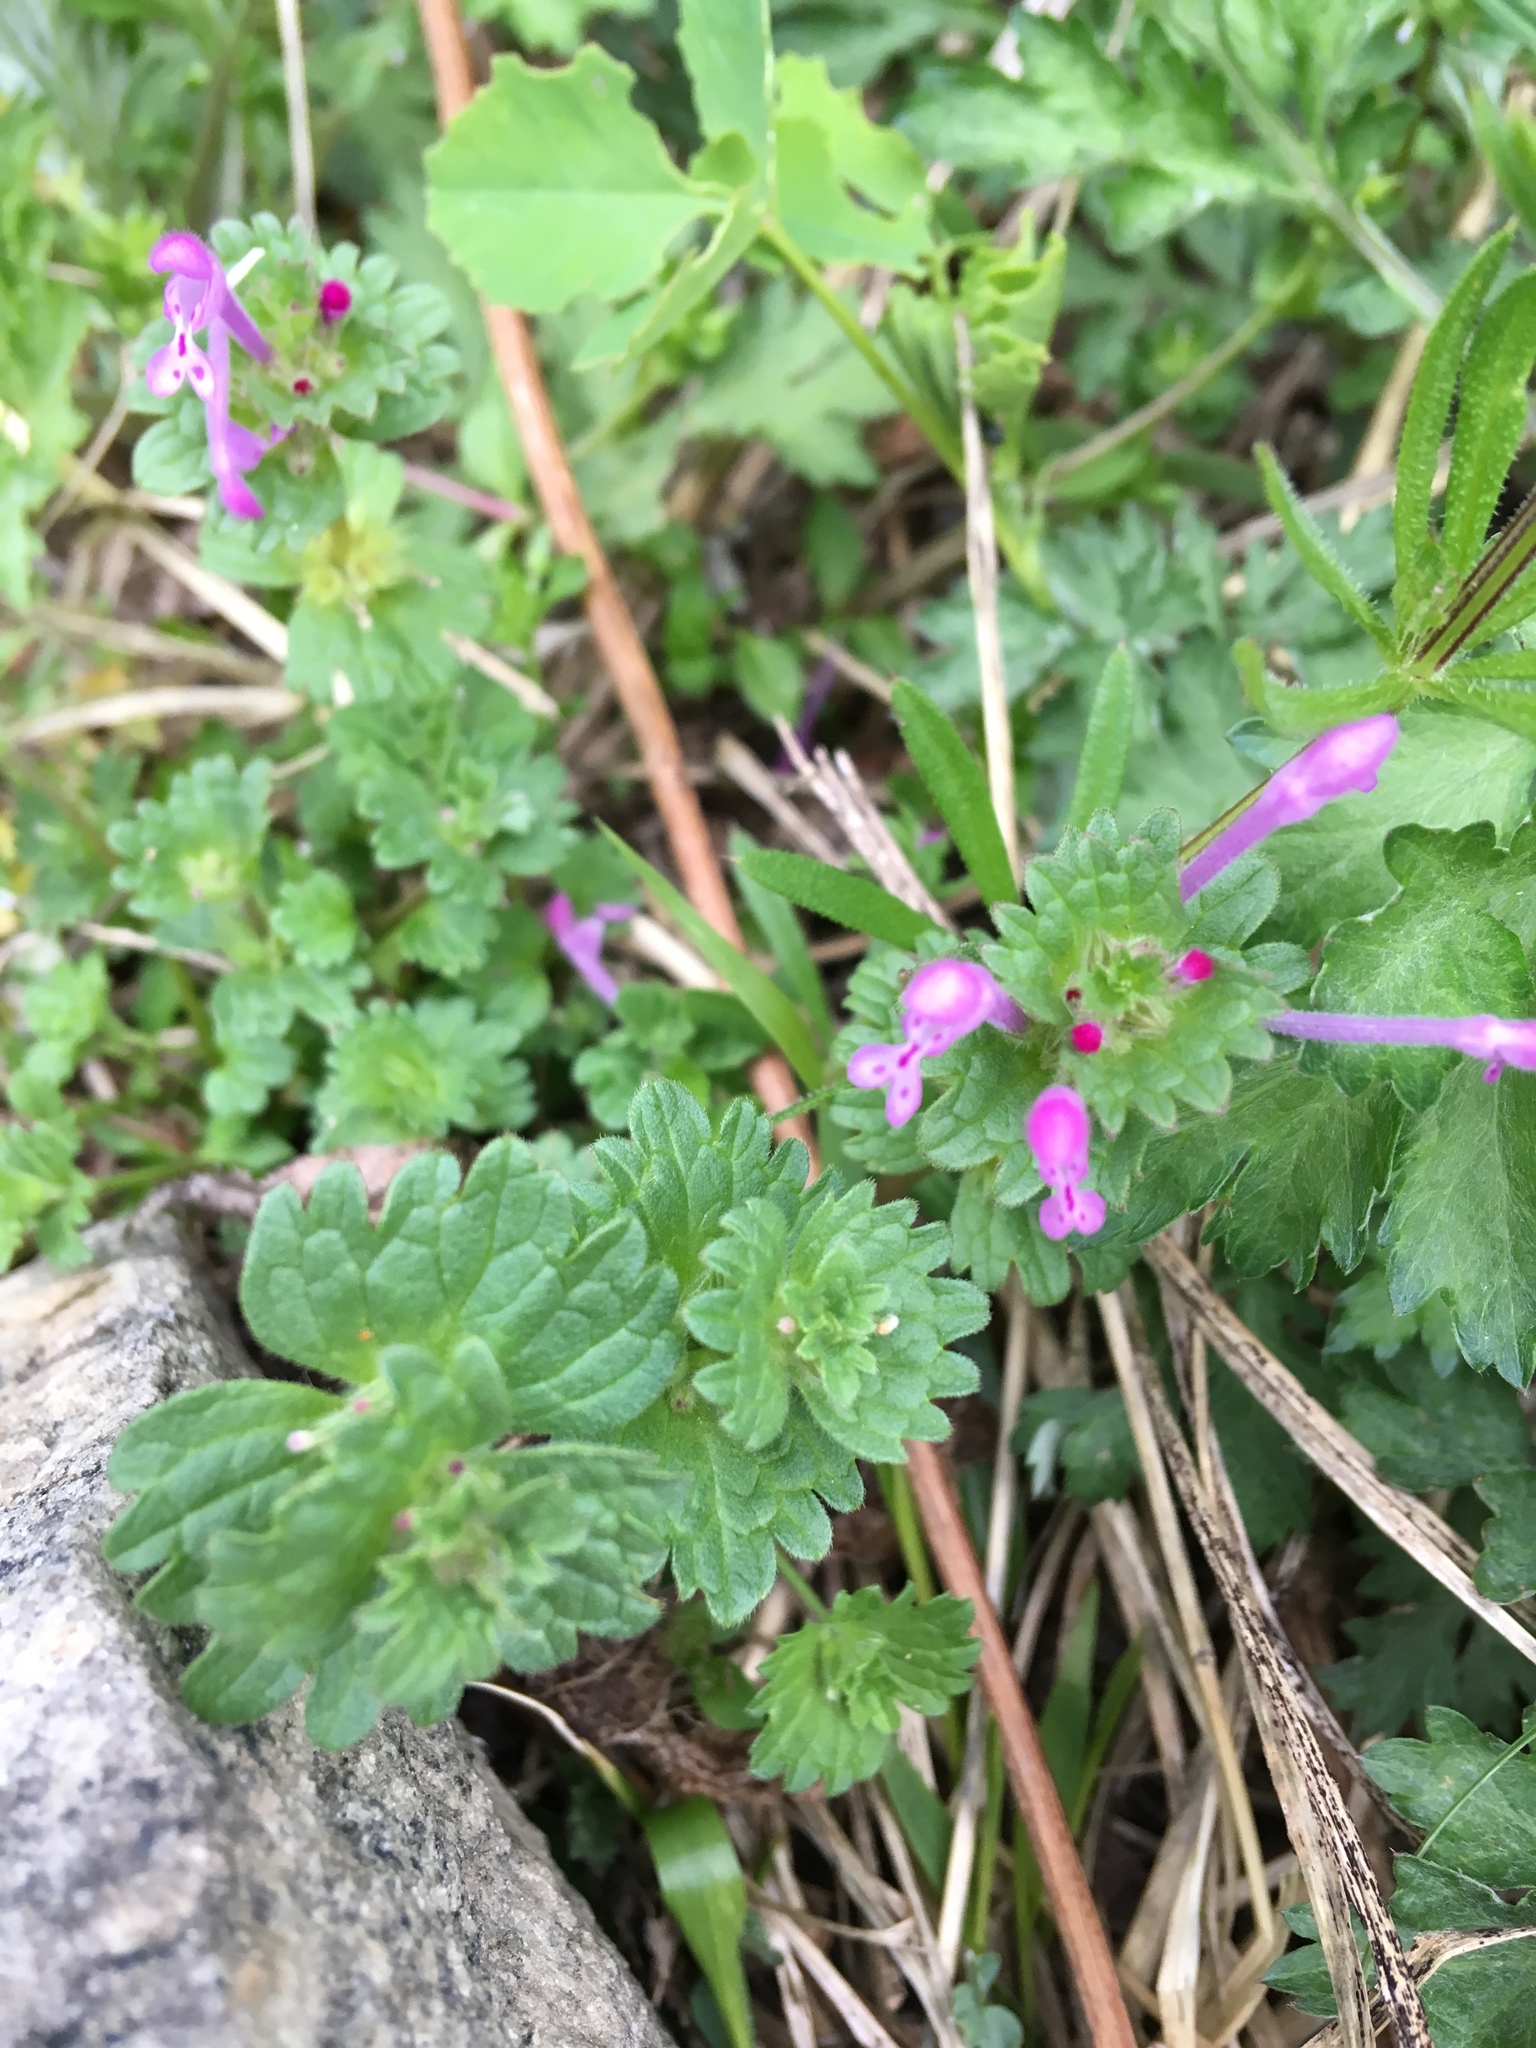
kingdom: Plantae
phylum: Tracheophyta
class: Magnoliopsida
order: Lamiales
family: Lamiaceae
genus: Lamium
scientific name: Lamium amplexicaule
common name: Henbit dead-nettle
